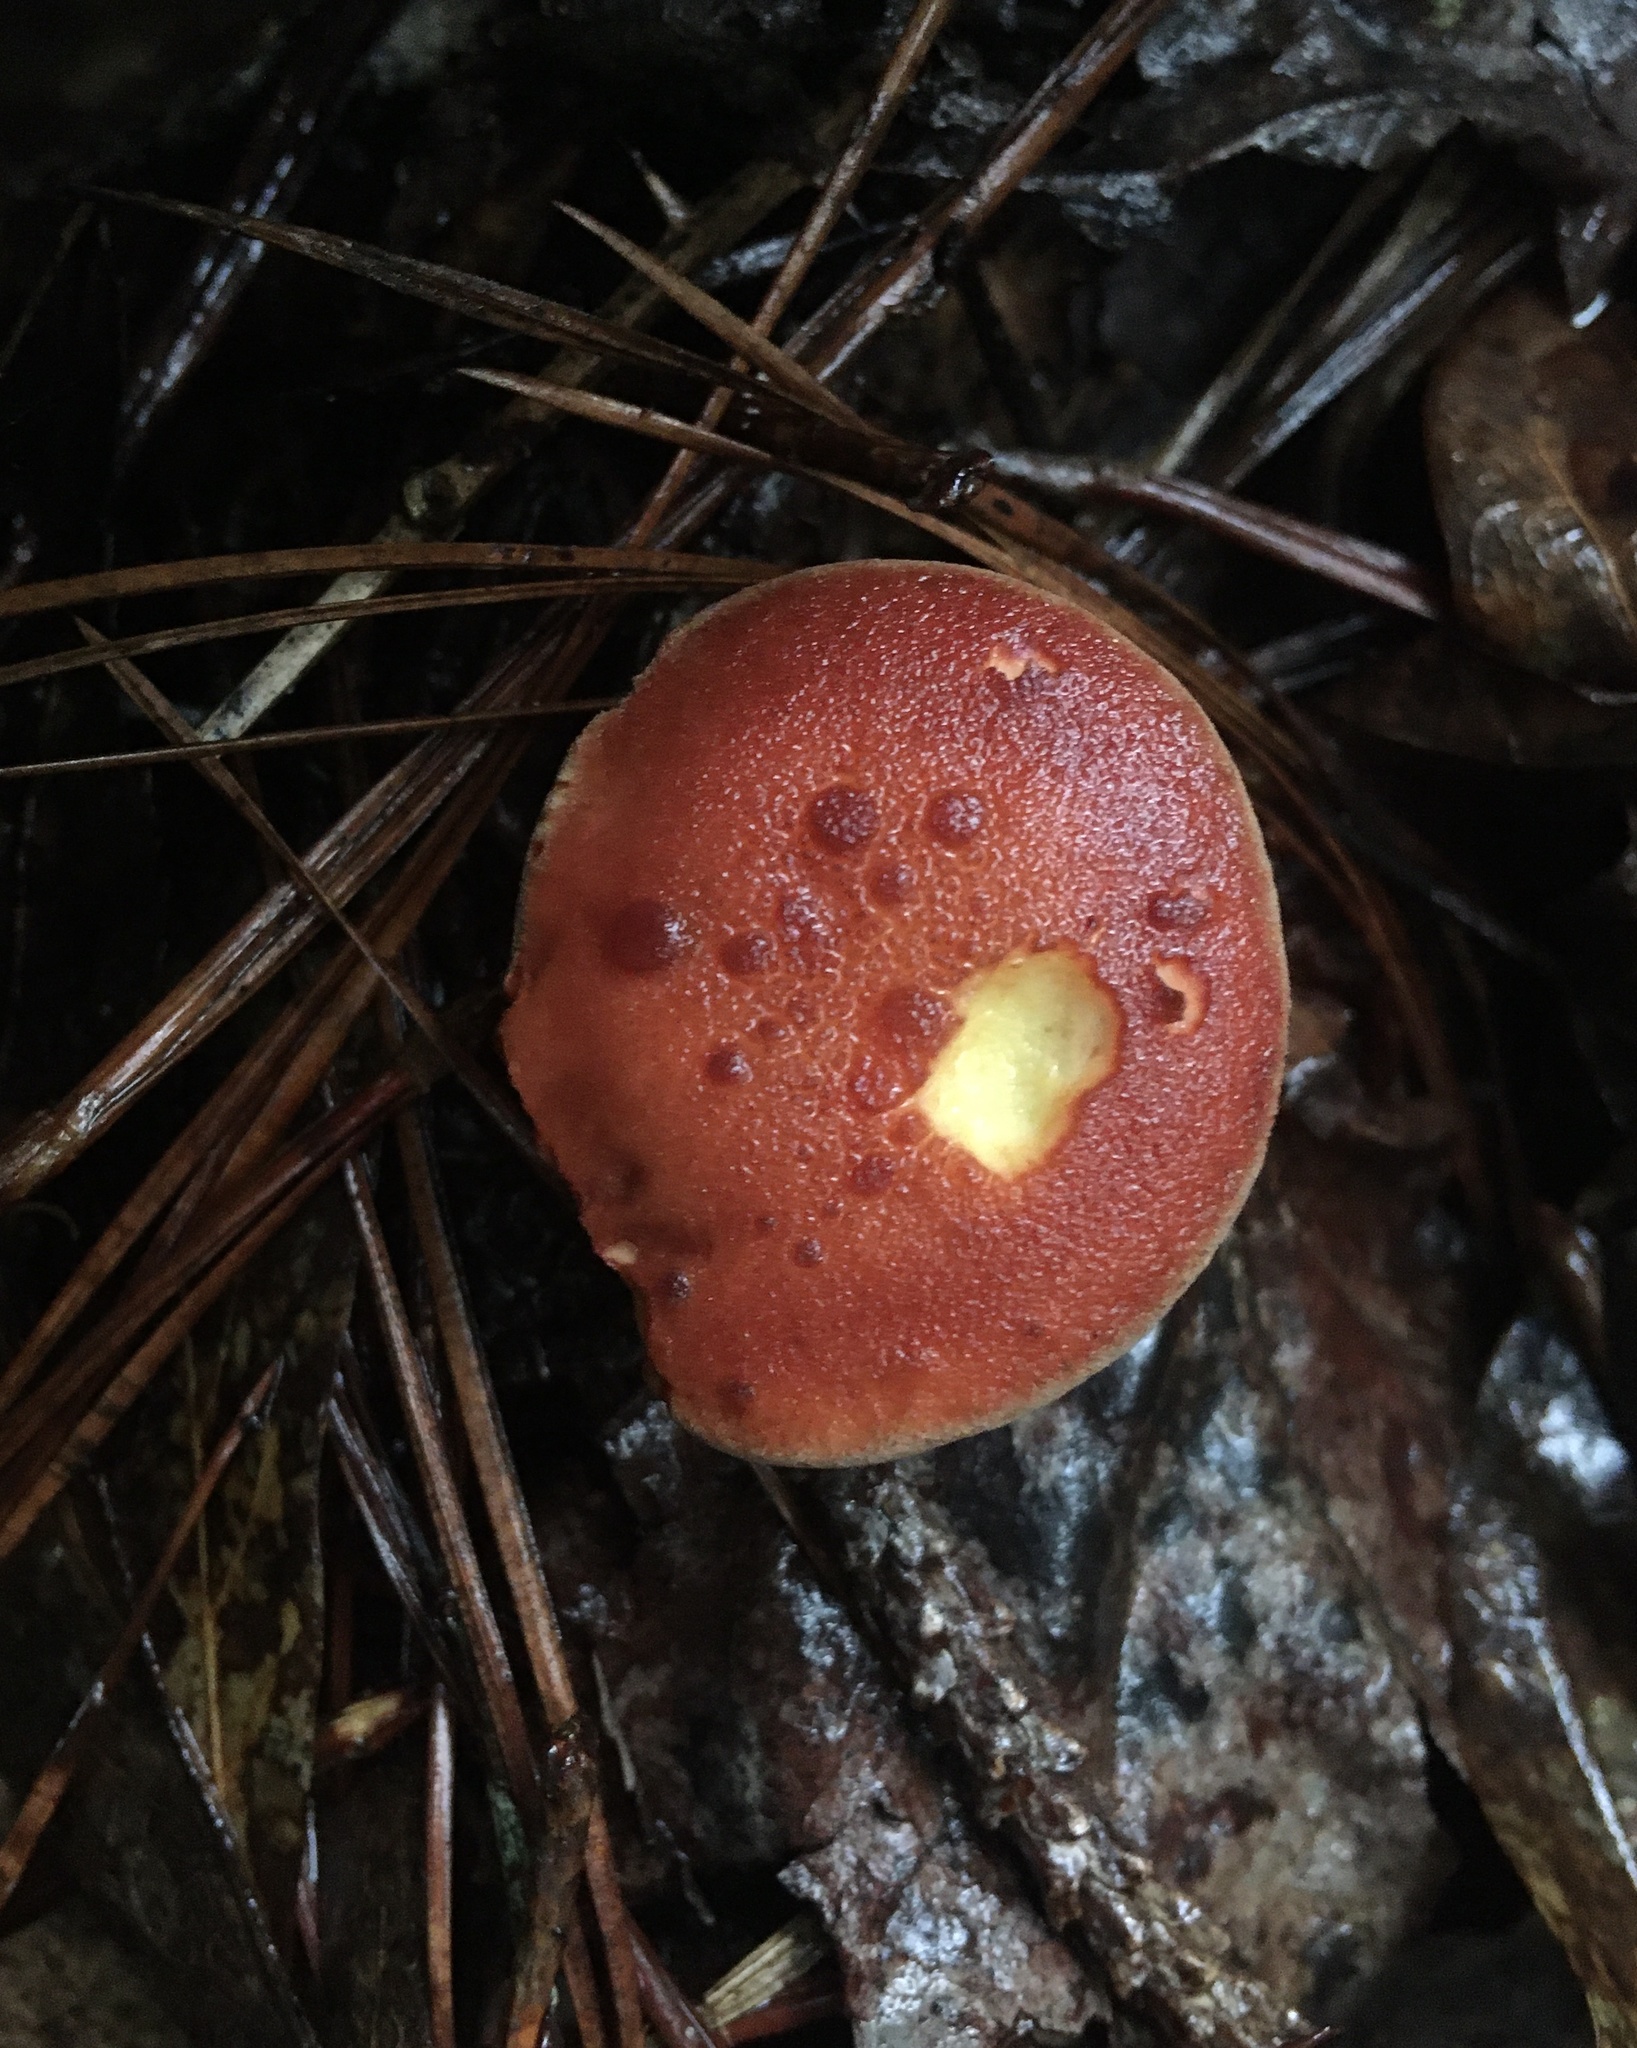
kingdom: Fungi
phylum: Basidiomycota
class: Agaricomycetes
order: Boletales
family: Boletaceae
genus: Phylloporus
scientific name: Phylloporus leucomycelinus
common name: Gilled bolete
